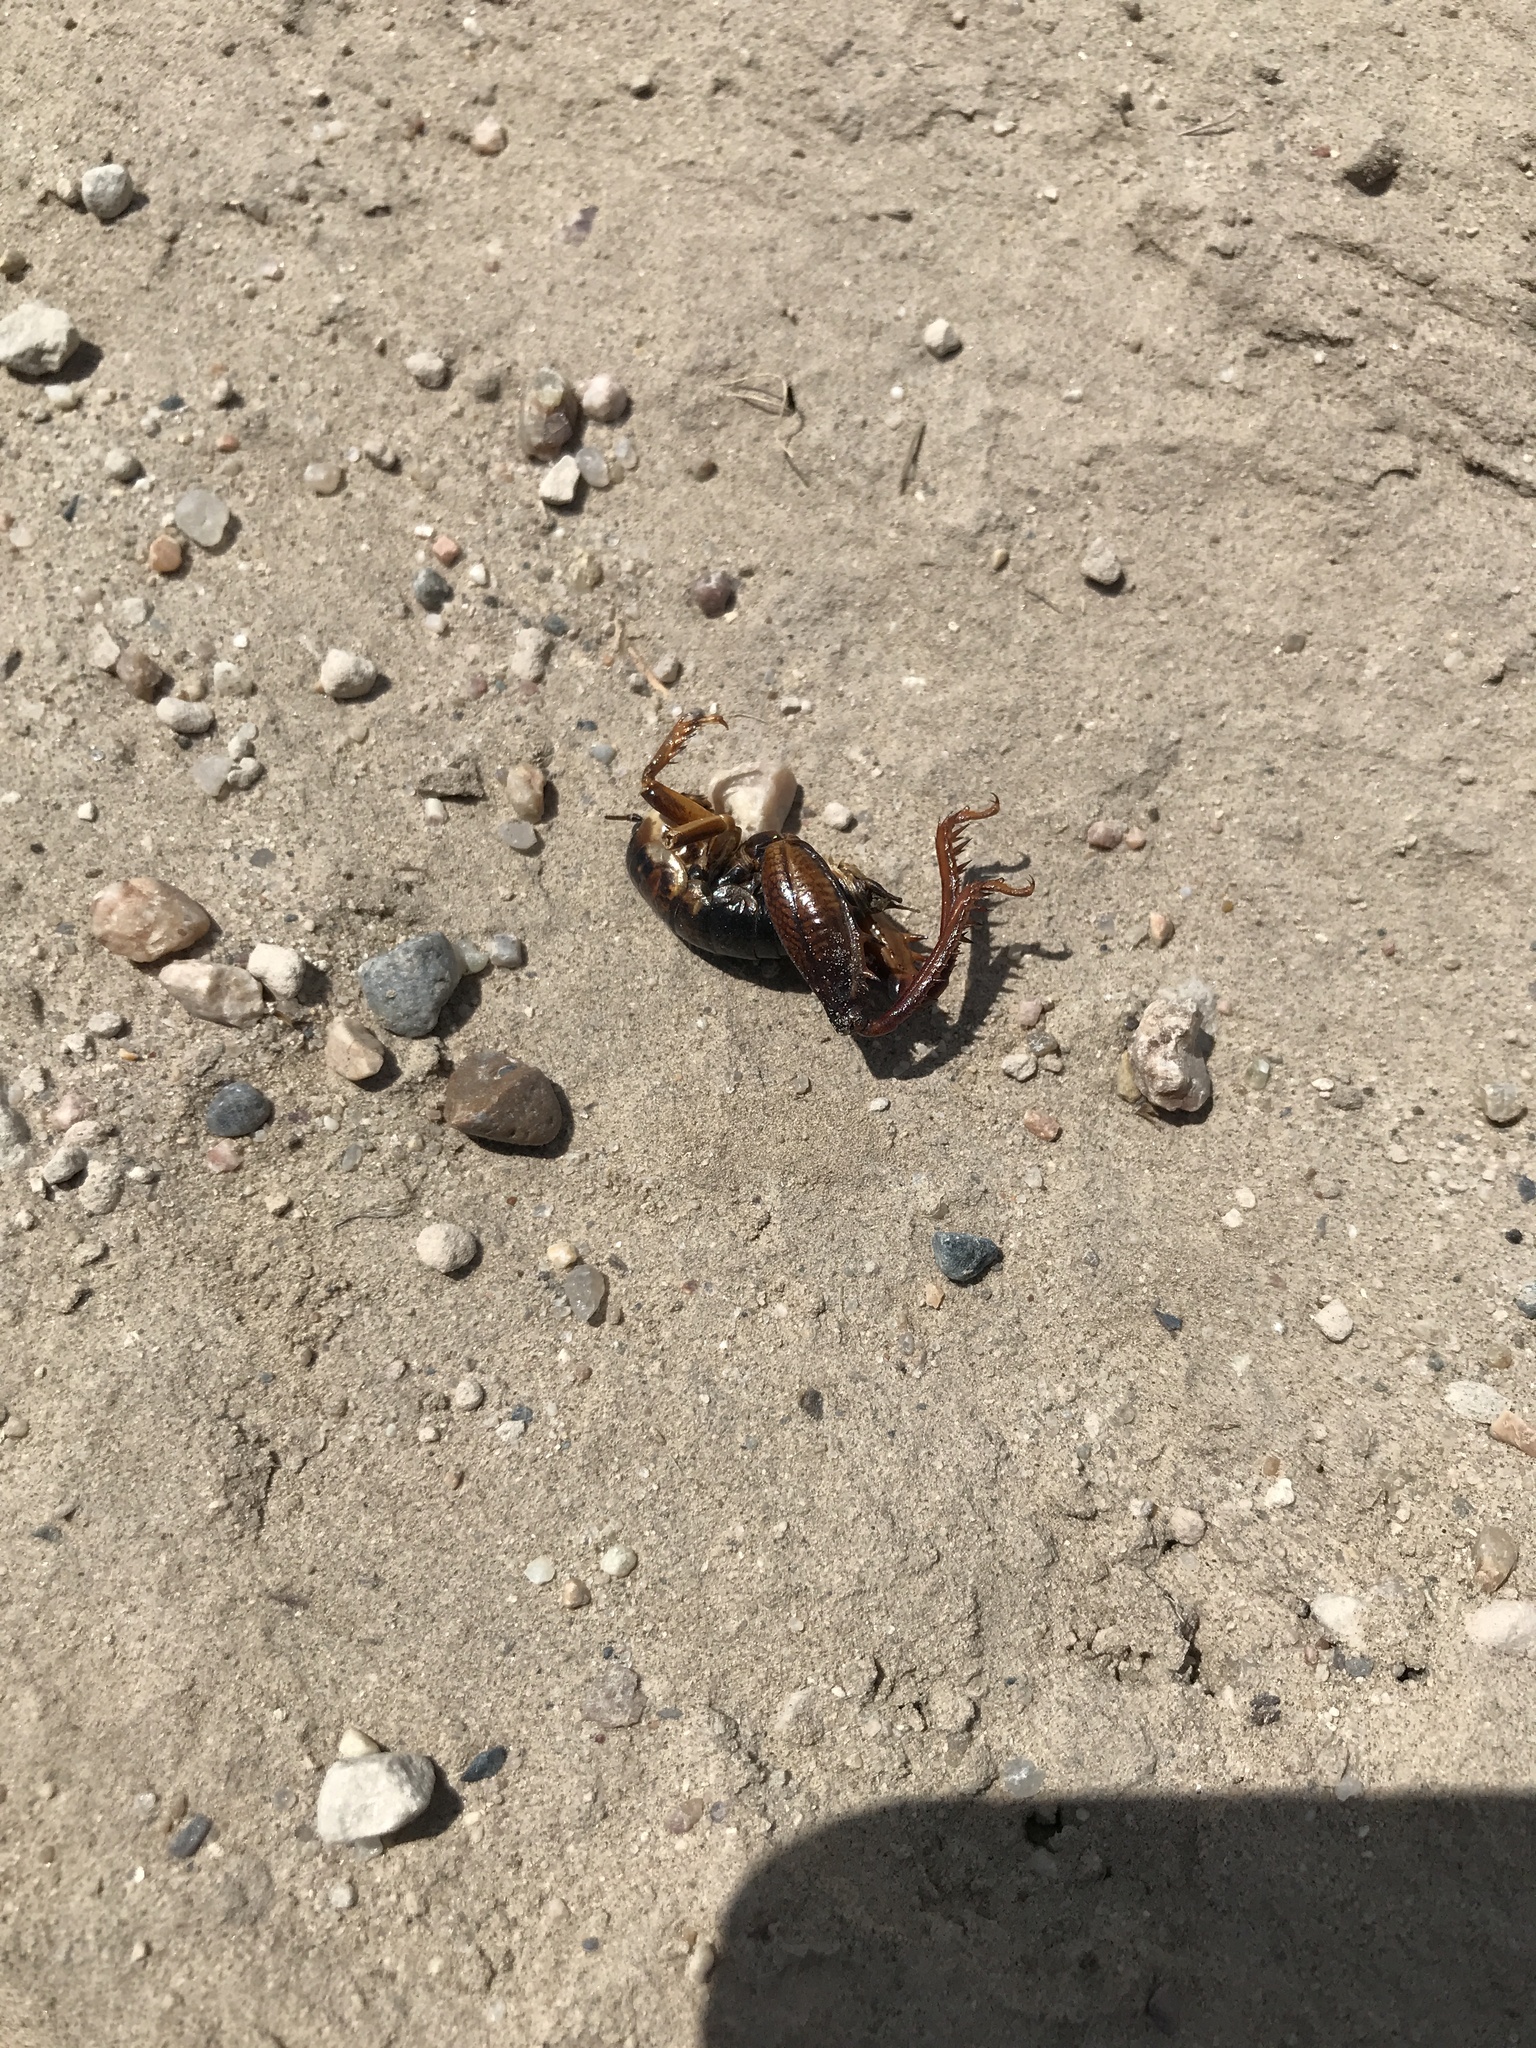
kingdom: Animalia
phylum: Arthropoda
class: Insecta
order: Orthoptera
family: Rhaphidophoridae
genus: Daihinia
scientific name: Daihinia brevipes
